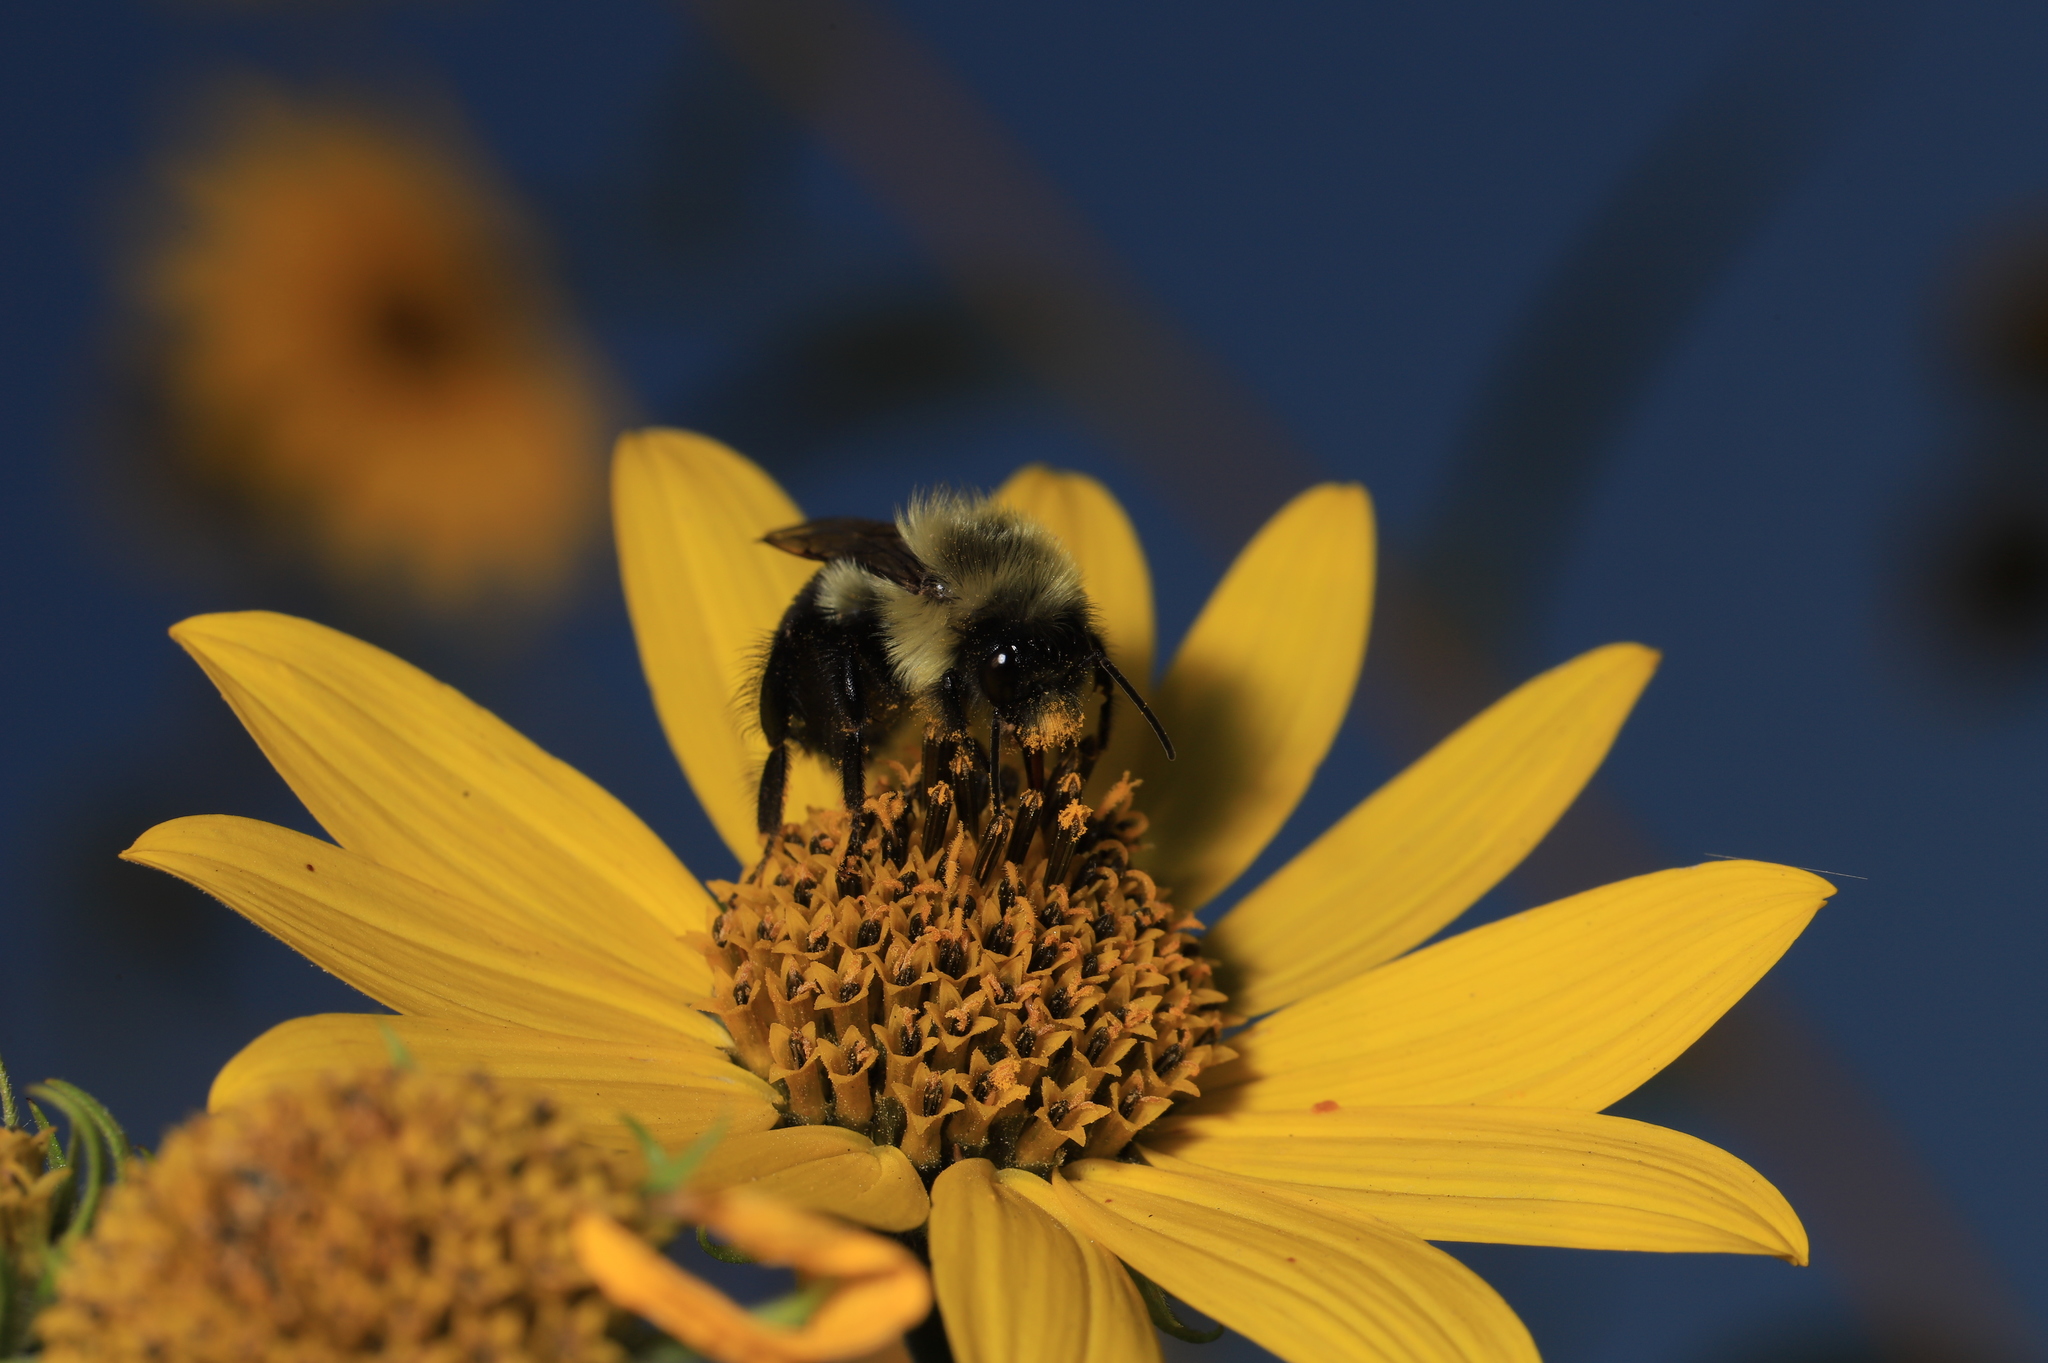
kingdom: Animalia
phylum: Arthropoda
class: Insecta
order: Hymenoptera
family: Apidae
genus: Bombus
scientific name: Bombus impatiens
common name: Common eastern bumble bee
